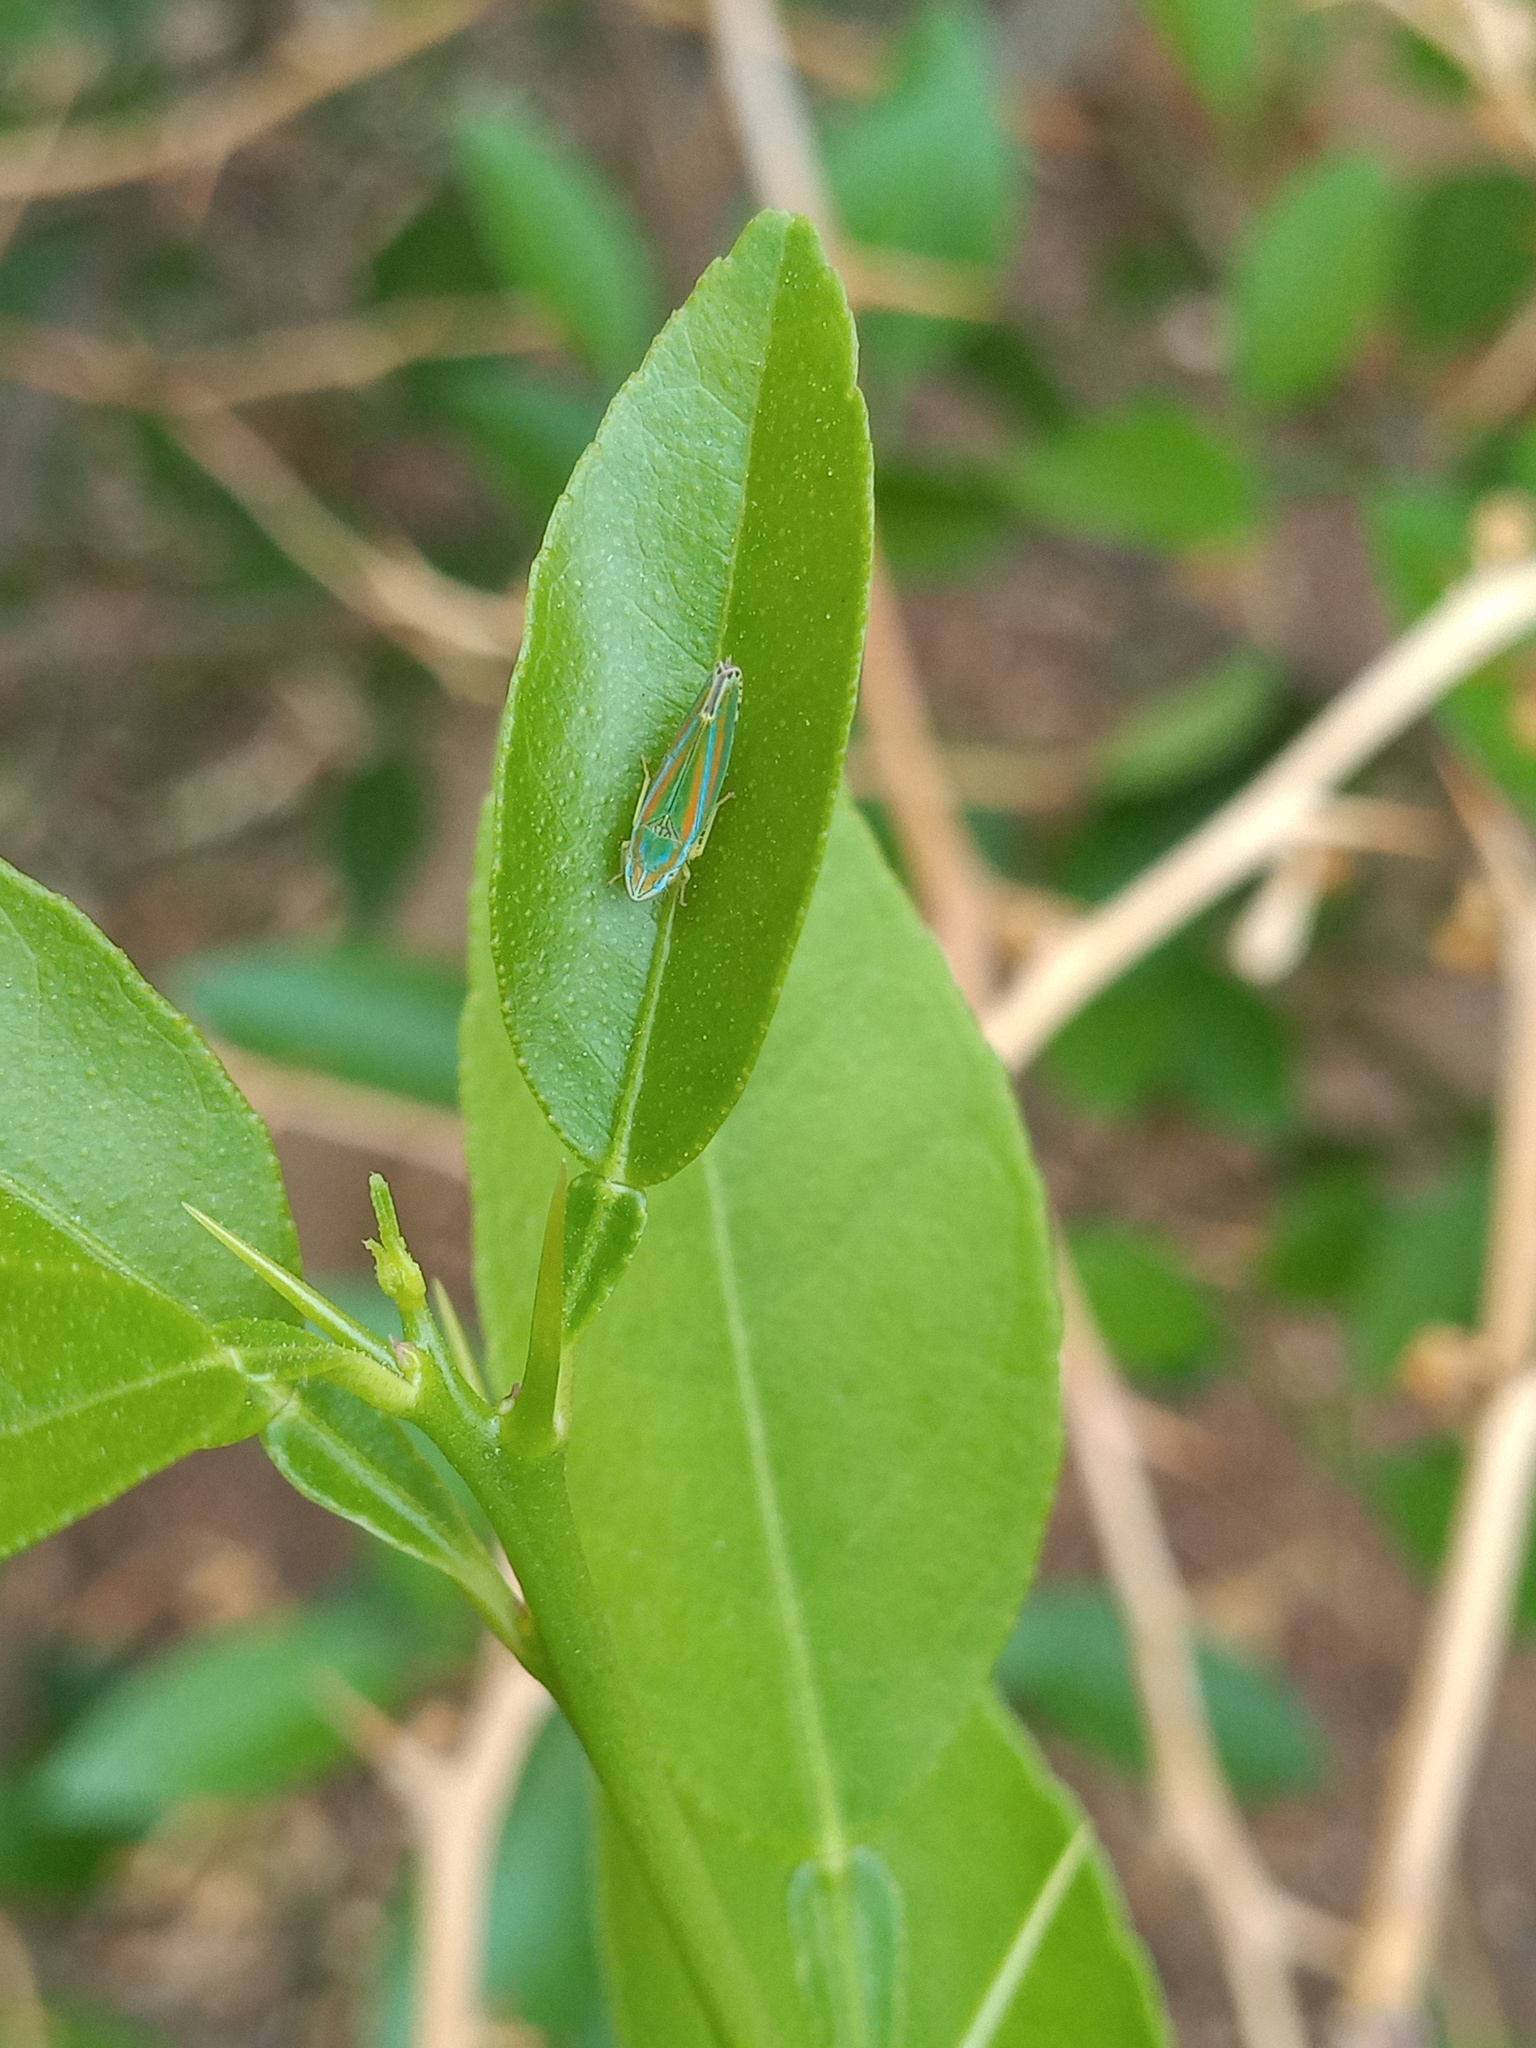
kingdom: Animalia
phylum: Arthropoda
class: Insecta
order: Hemiptera
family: Cicadellidae
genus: Graphocephala
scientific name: Graphocephala versuta
